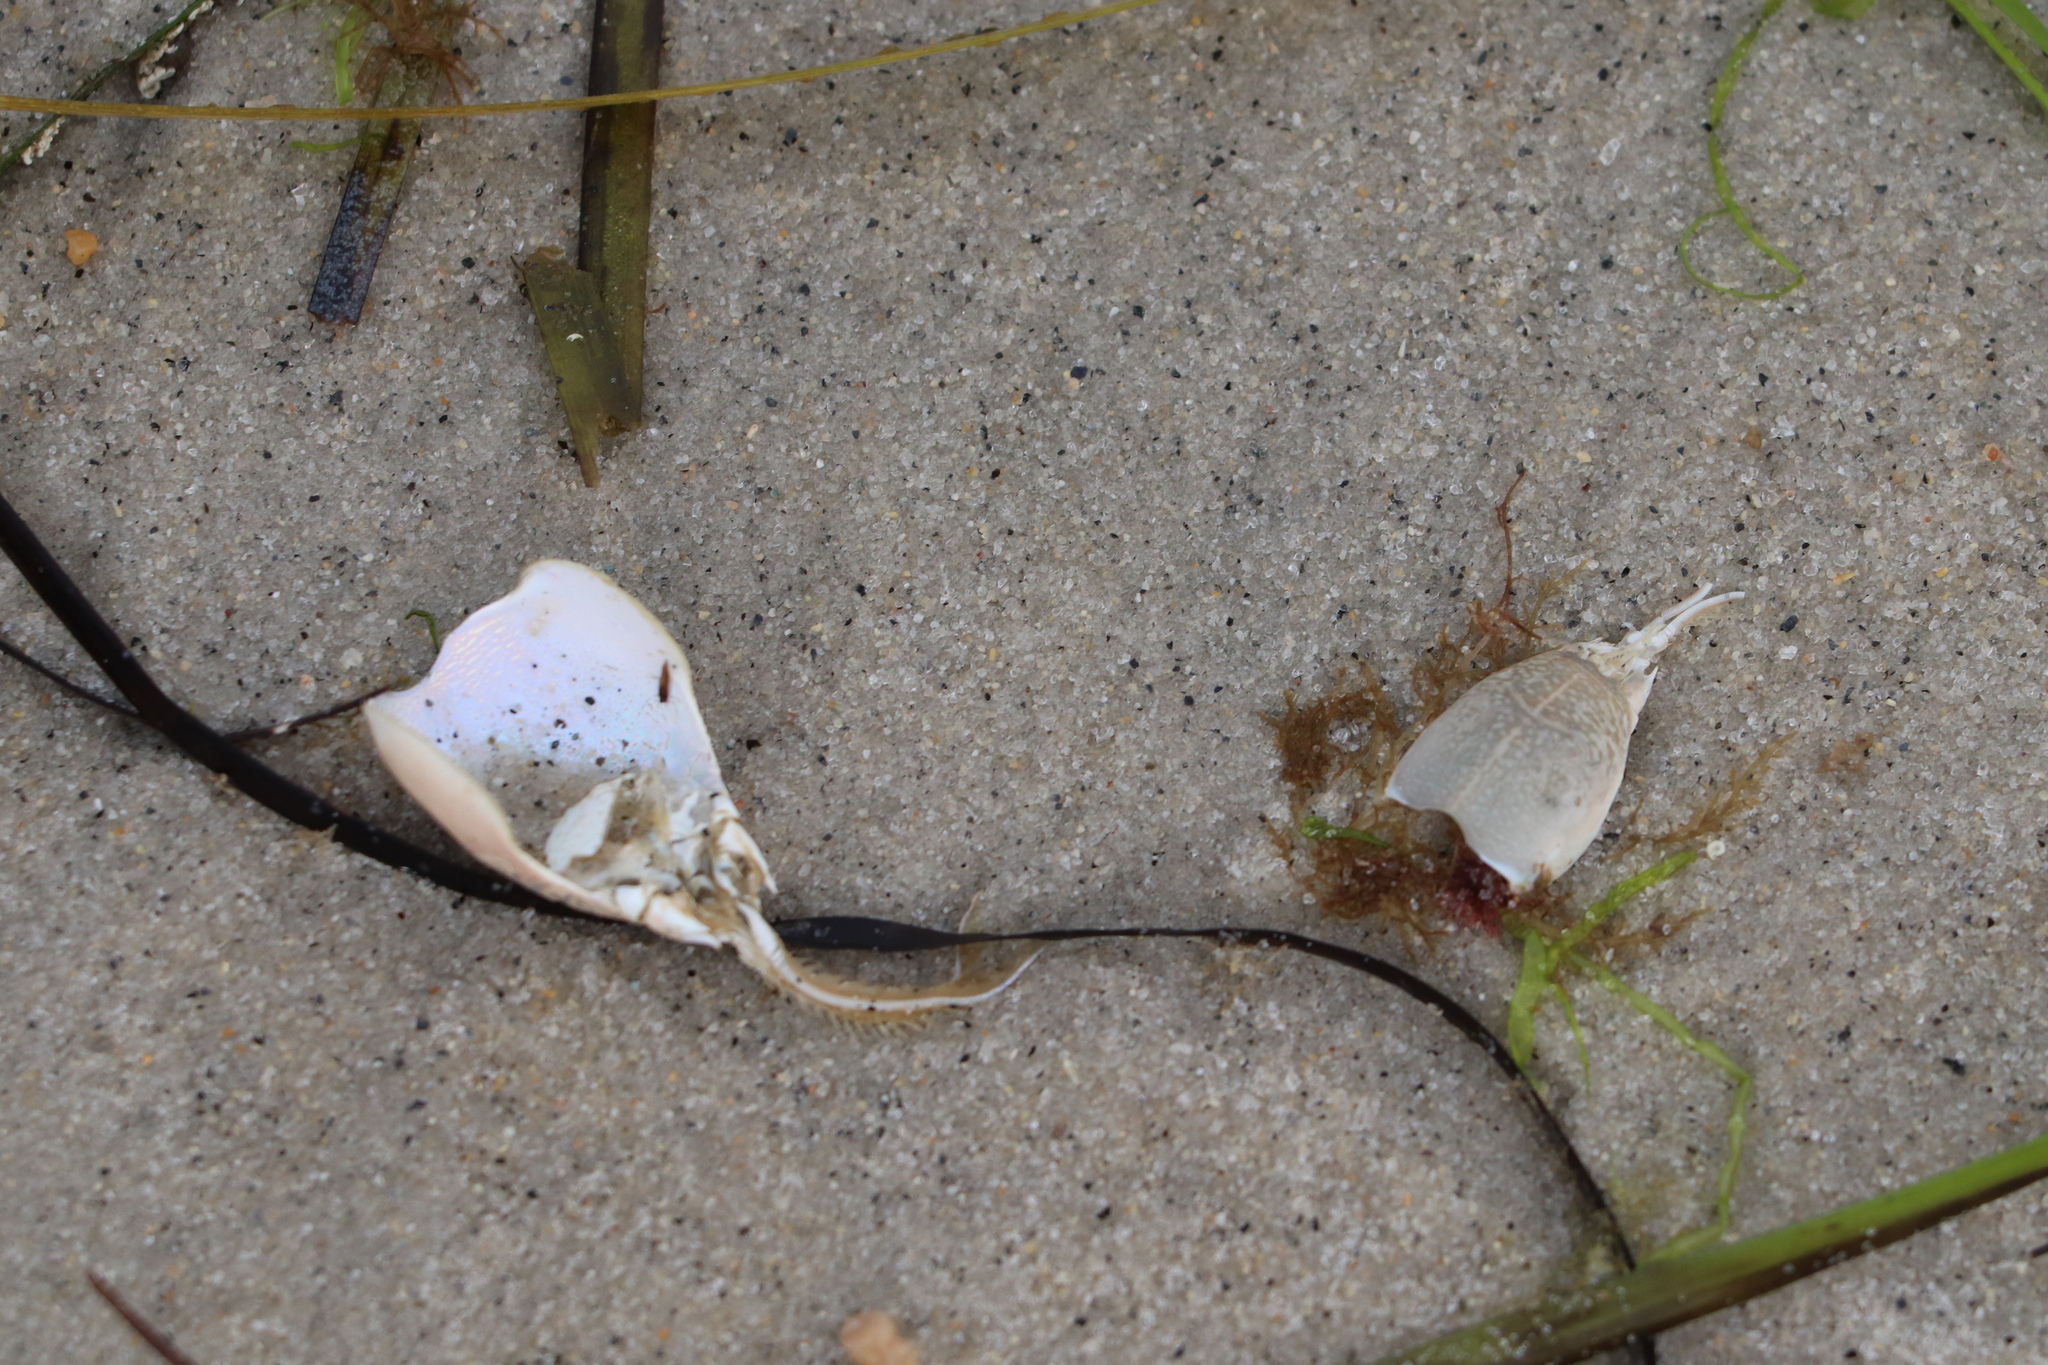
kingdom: Animalia
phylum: Arthropoda
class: Malacostraca
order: Decapoda
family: Hippidae
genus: Emerita
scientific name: Emerita talpoida
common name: Atlantic sand crab
